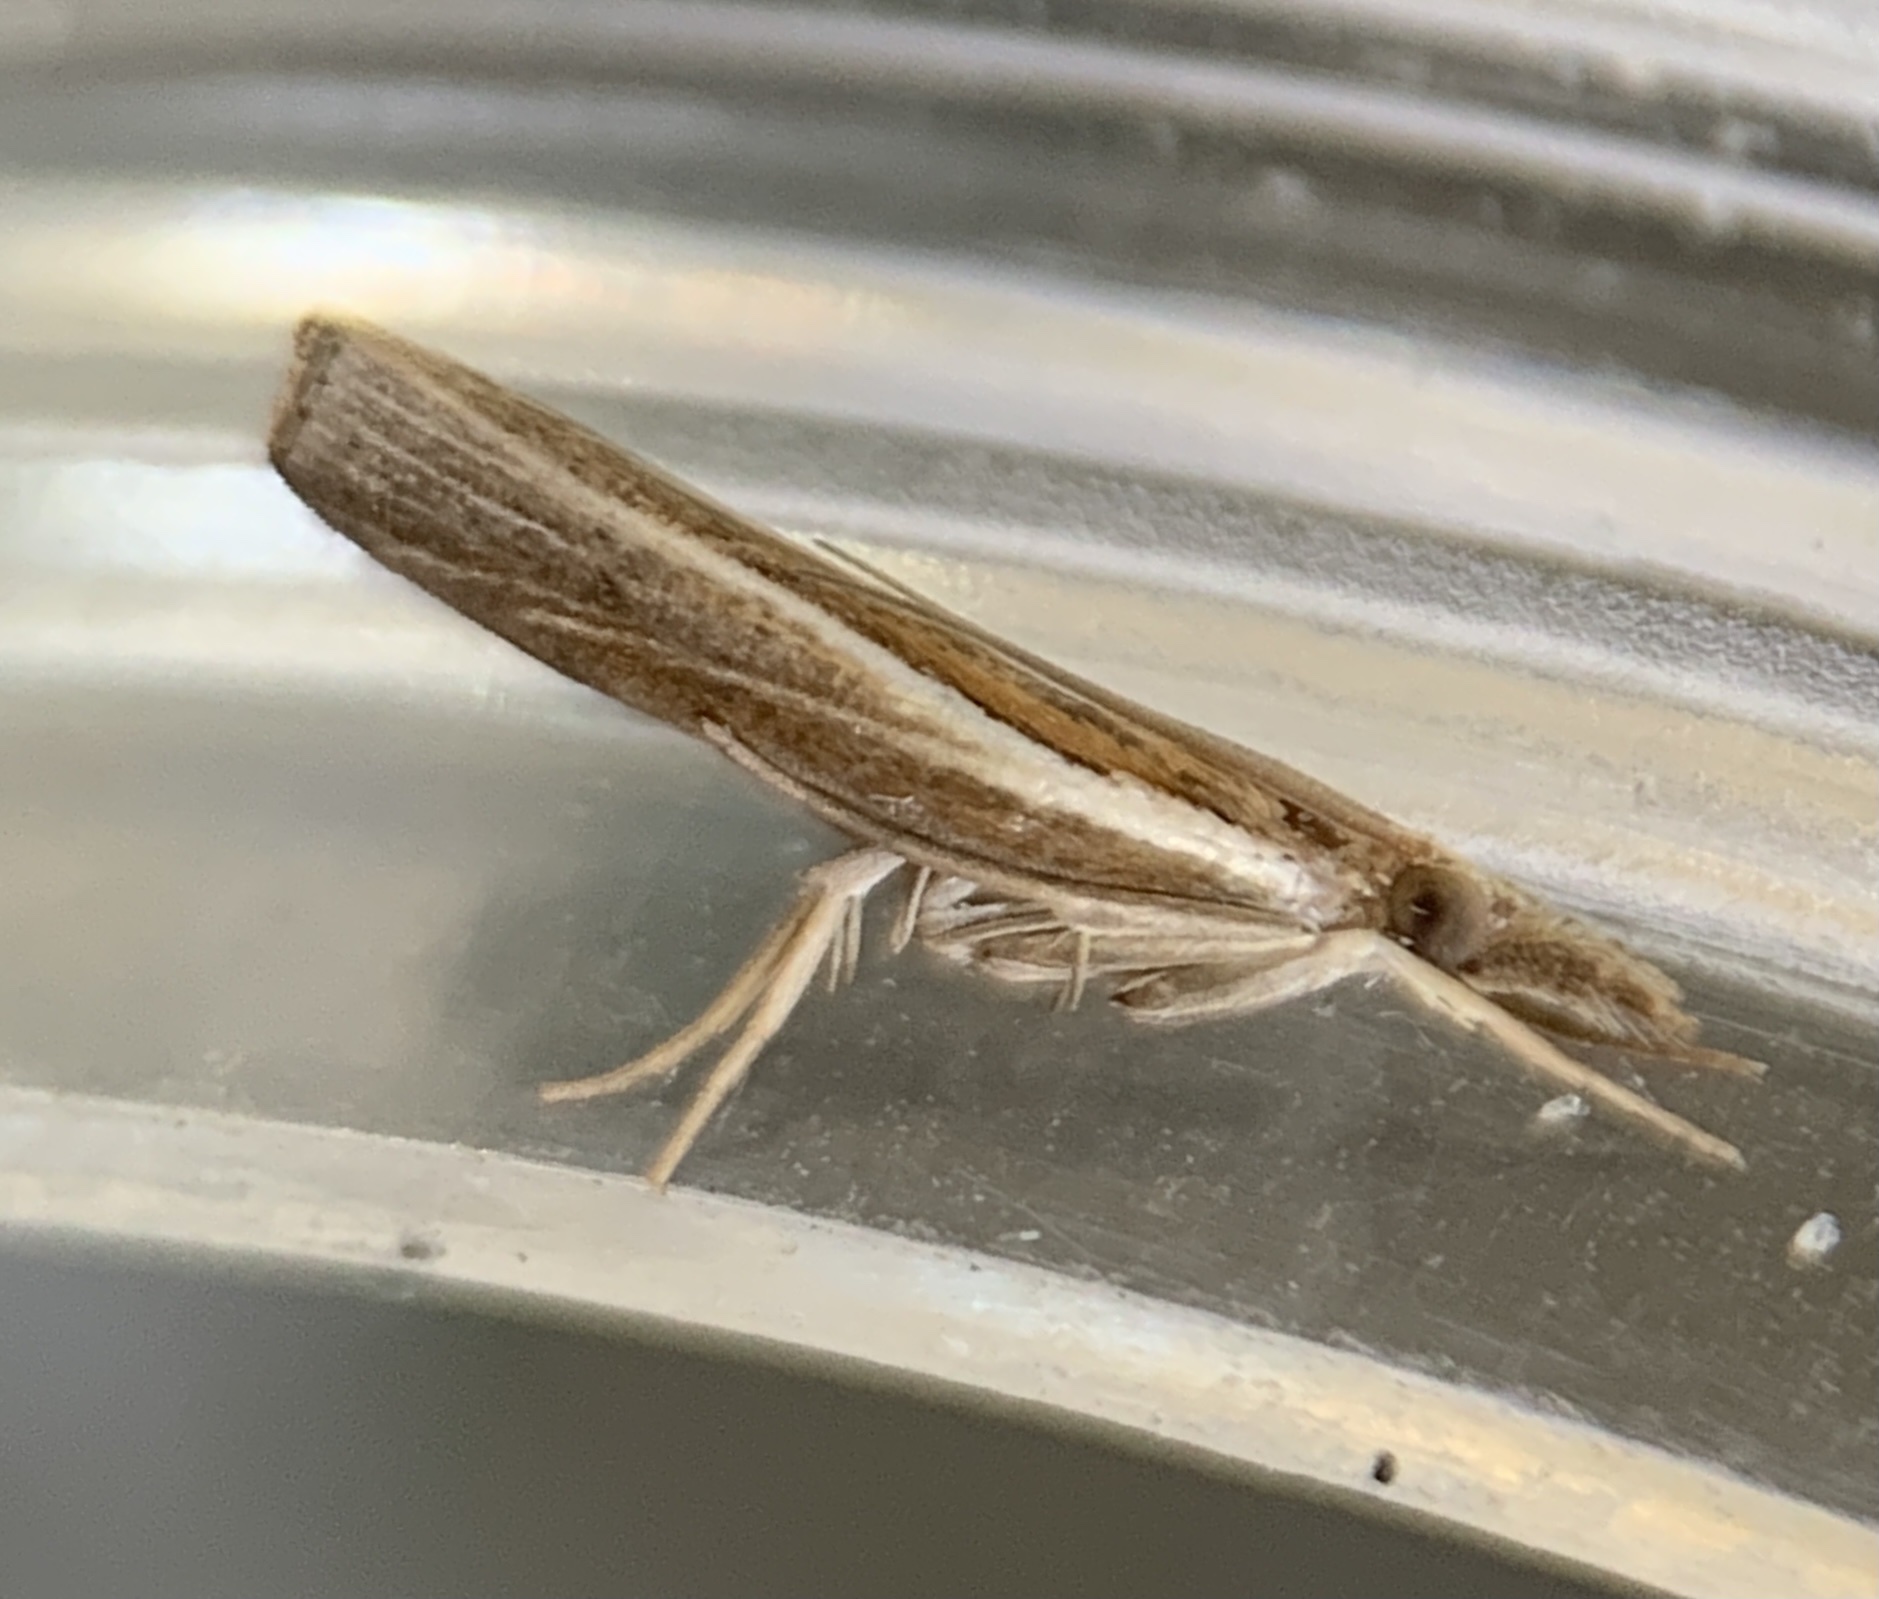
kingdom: Animalia
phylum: Arthropoda
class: Insecta
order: Lepidoptera
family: Crambidae
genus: Fissicrambus
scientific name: Fissicrambus fissiradiellus
